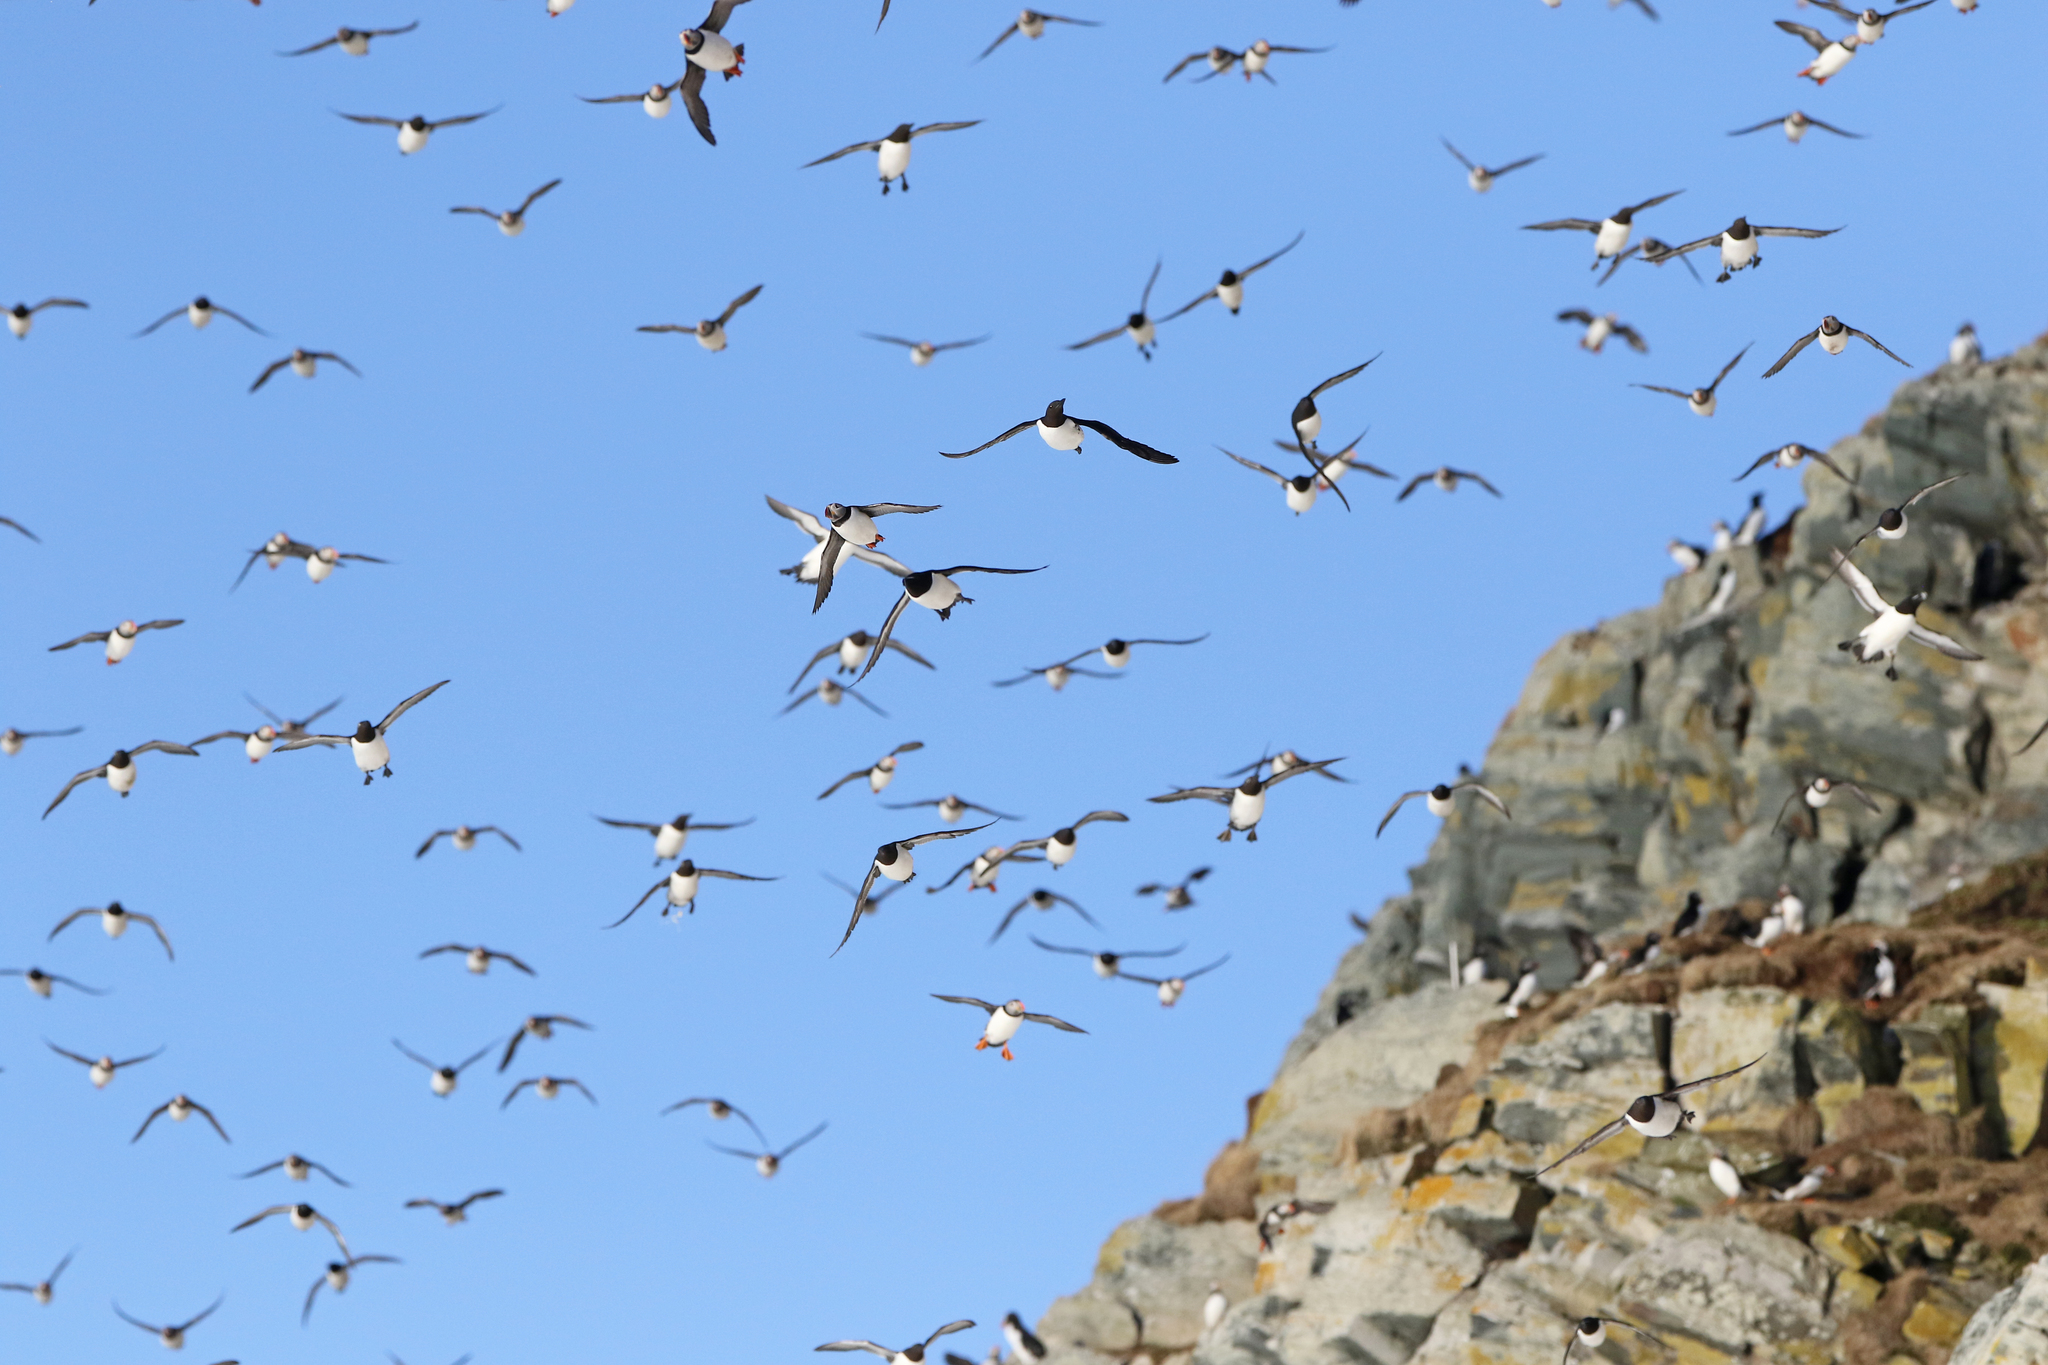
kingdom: Animalia
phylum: Chordata
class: Aves
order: Charadriiformes
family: Alcidae
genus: Fratercula
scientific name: Fratercula arctica
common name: Atlantic puffin
